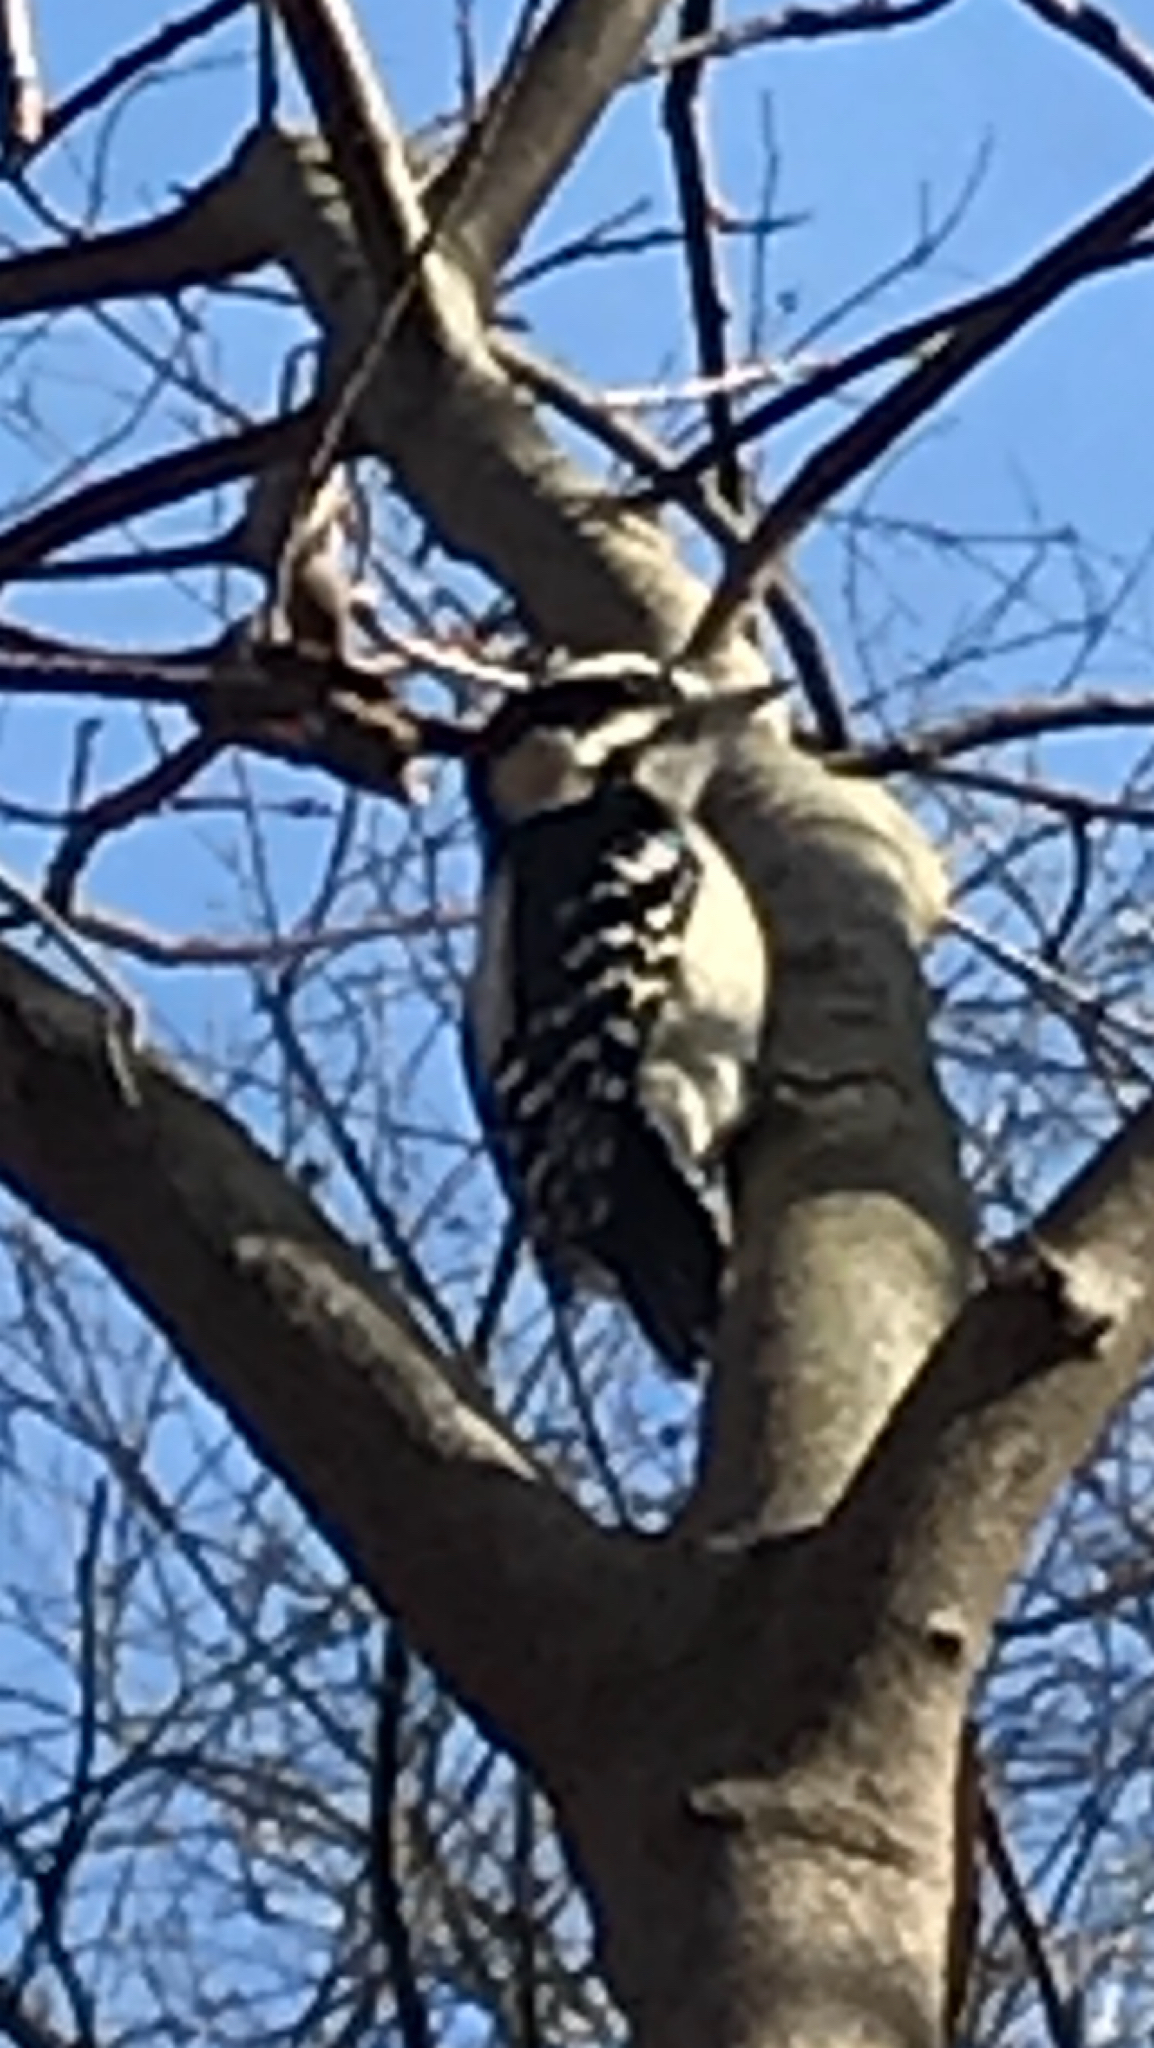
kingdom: Animalia
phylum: Chordata
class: Aves
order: Piciformes
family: Picidae
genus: Dryobates
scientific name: Dryobates pubescens
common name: Downy woodpecker
